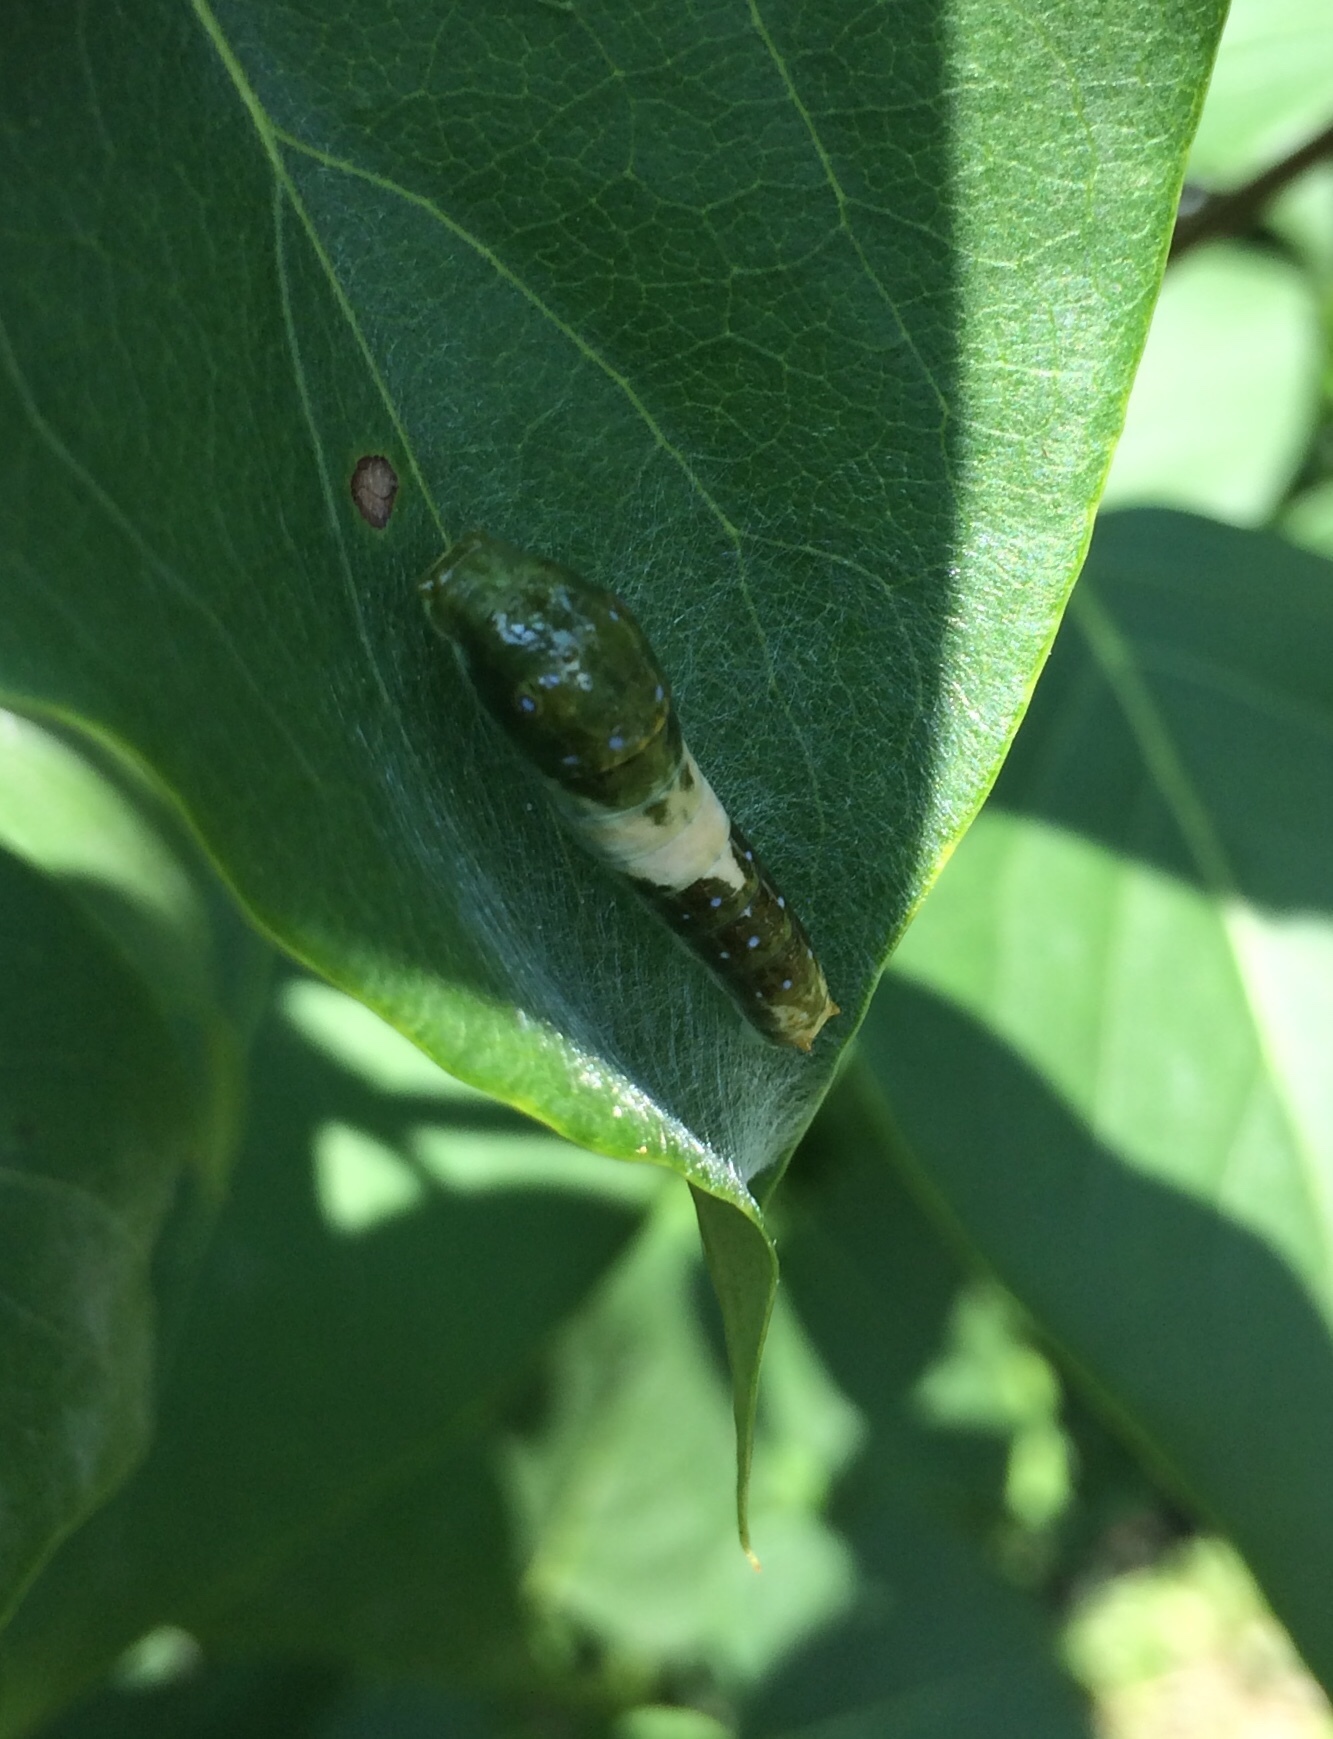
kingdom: Animalia
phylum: Arthropoda
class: Insecta
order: Lepidoptera
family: Papilionidae
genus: Papilio
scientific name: Papilio glaucus
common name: Tiger swallowtail
